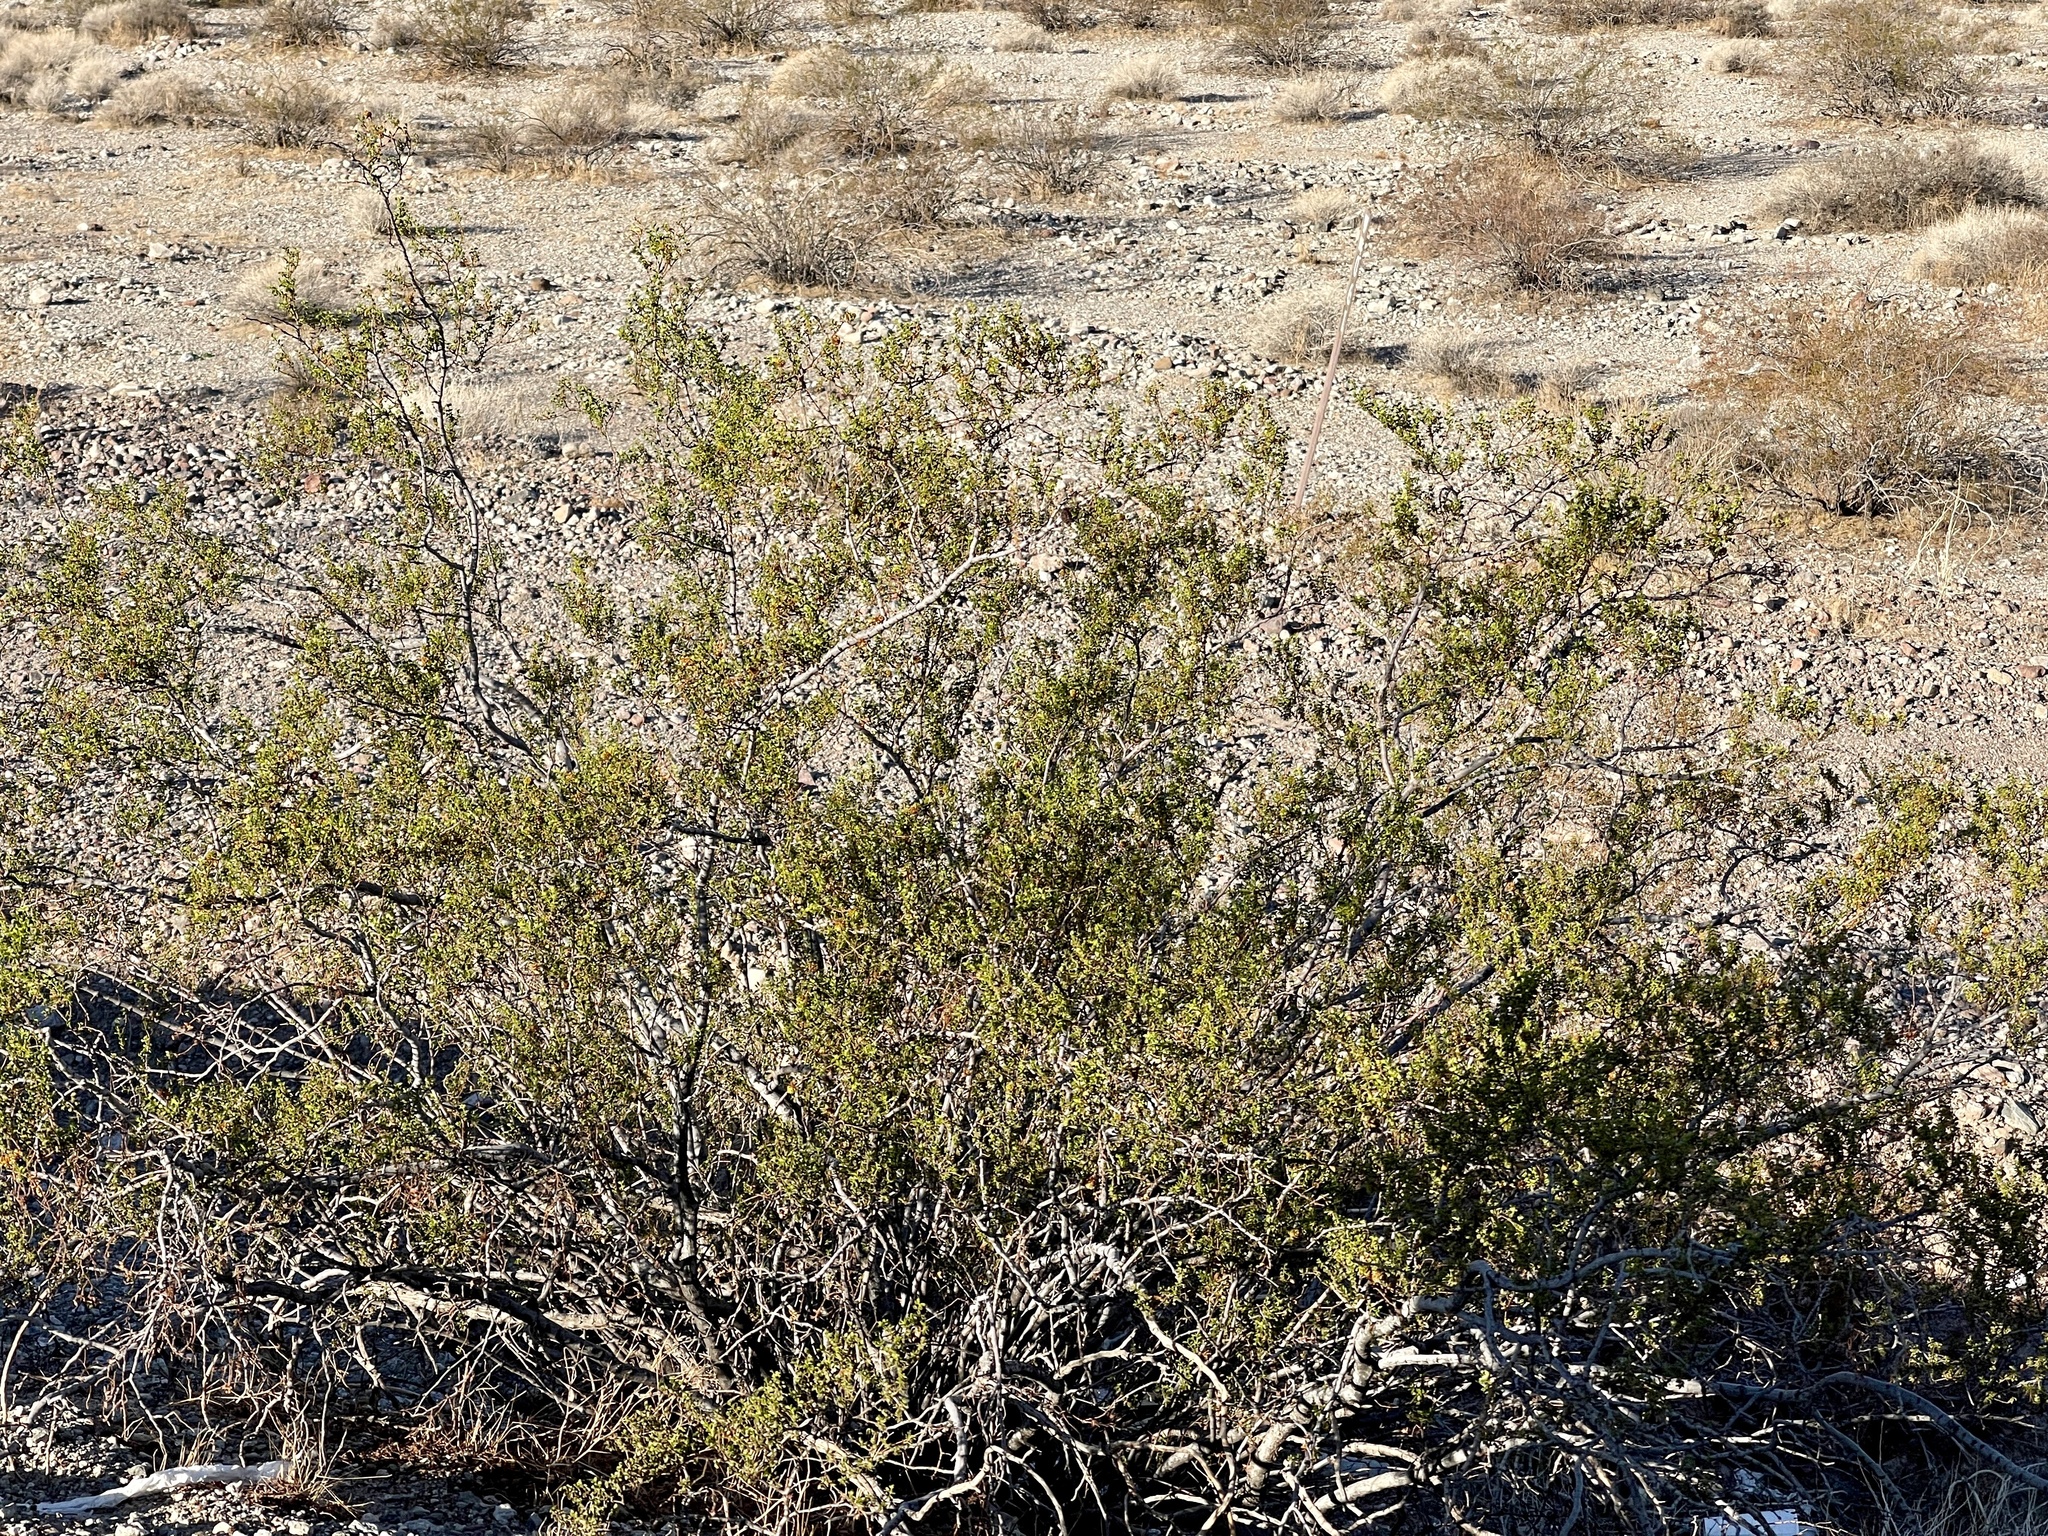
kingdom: Plantae
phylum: Tracheophyta
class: Magnoliopsida
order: Zygophyllales
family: Zygophyllaceae
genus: Larrea
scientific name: Larrea tridentata
